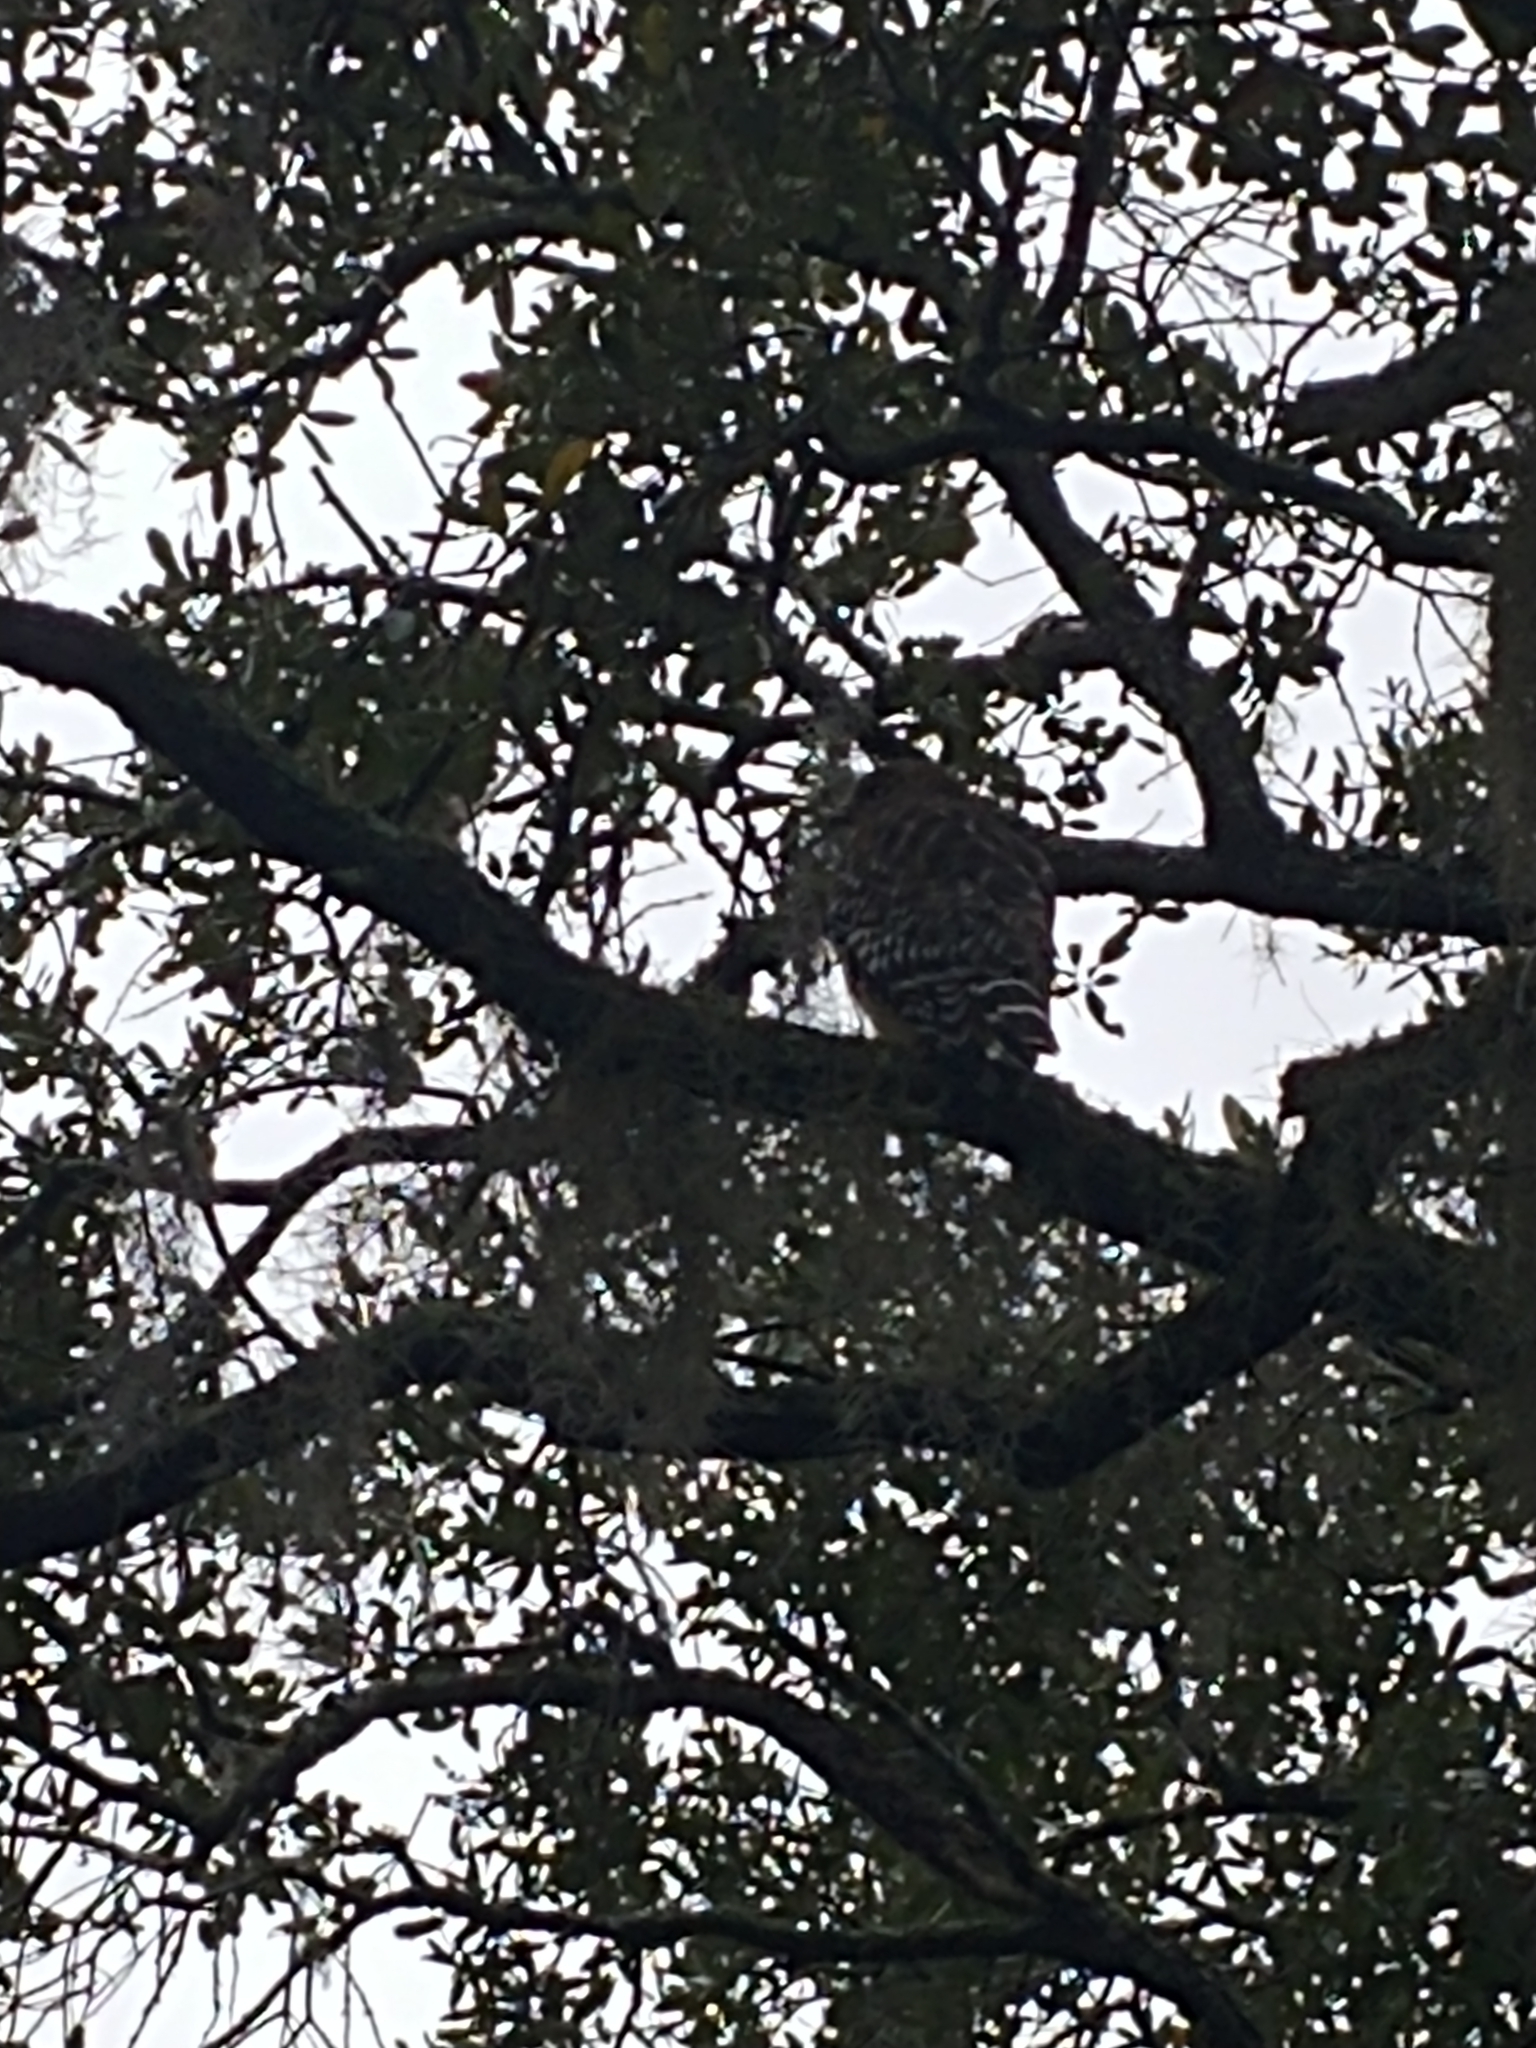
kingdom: Animalia
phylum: Chordata
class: Aves
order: Accipitriformes
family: Accipitridae
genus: Buteo
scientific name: Buteo lineatus
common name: Red-shouldered hawk
